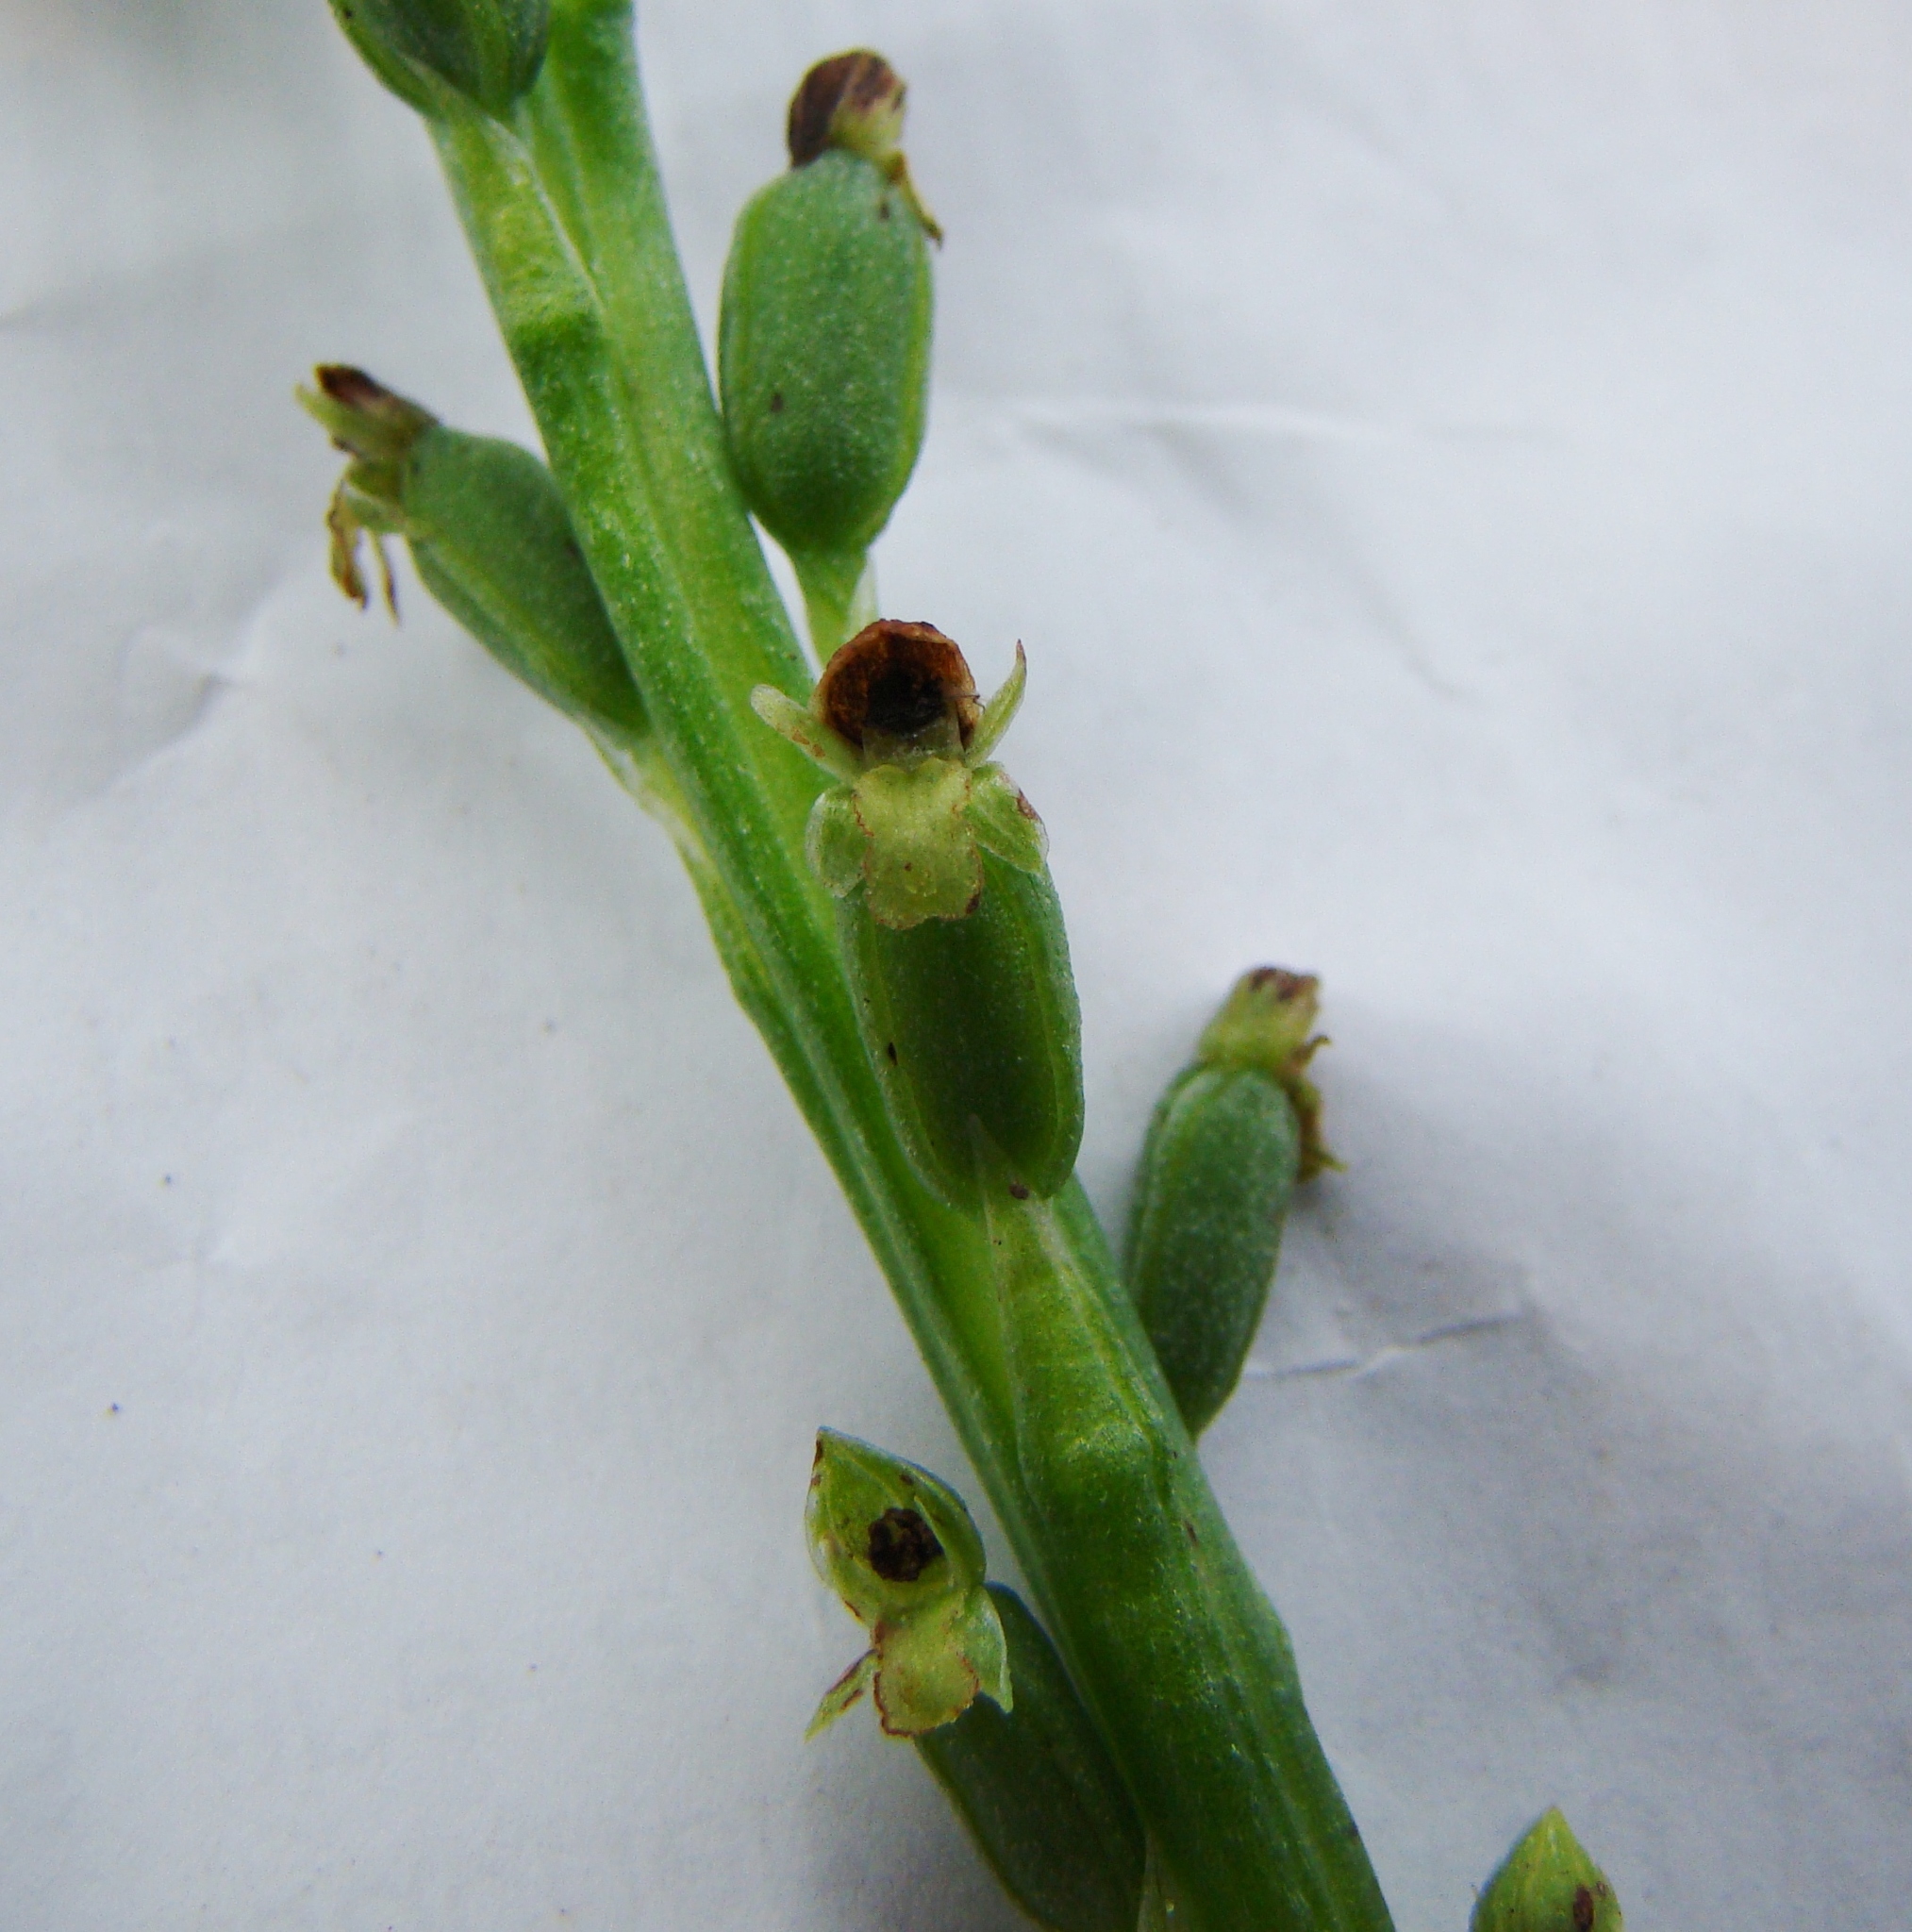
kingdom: Plantae
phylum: Tracheophyta
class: Liliopsida
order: Asparagales
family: Orchidaceae
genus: Microtis
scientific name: Microtis unifolia
